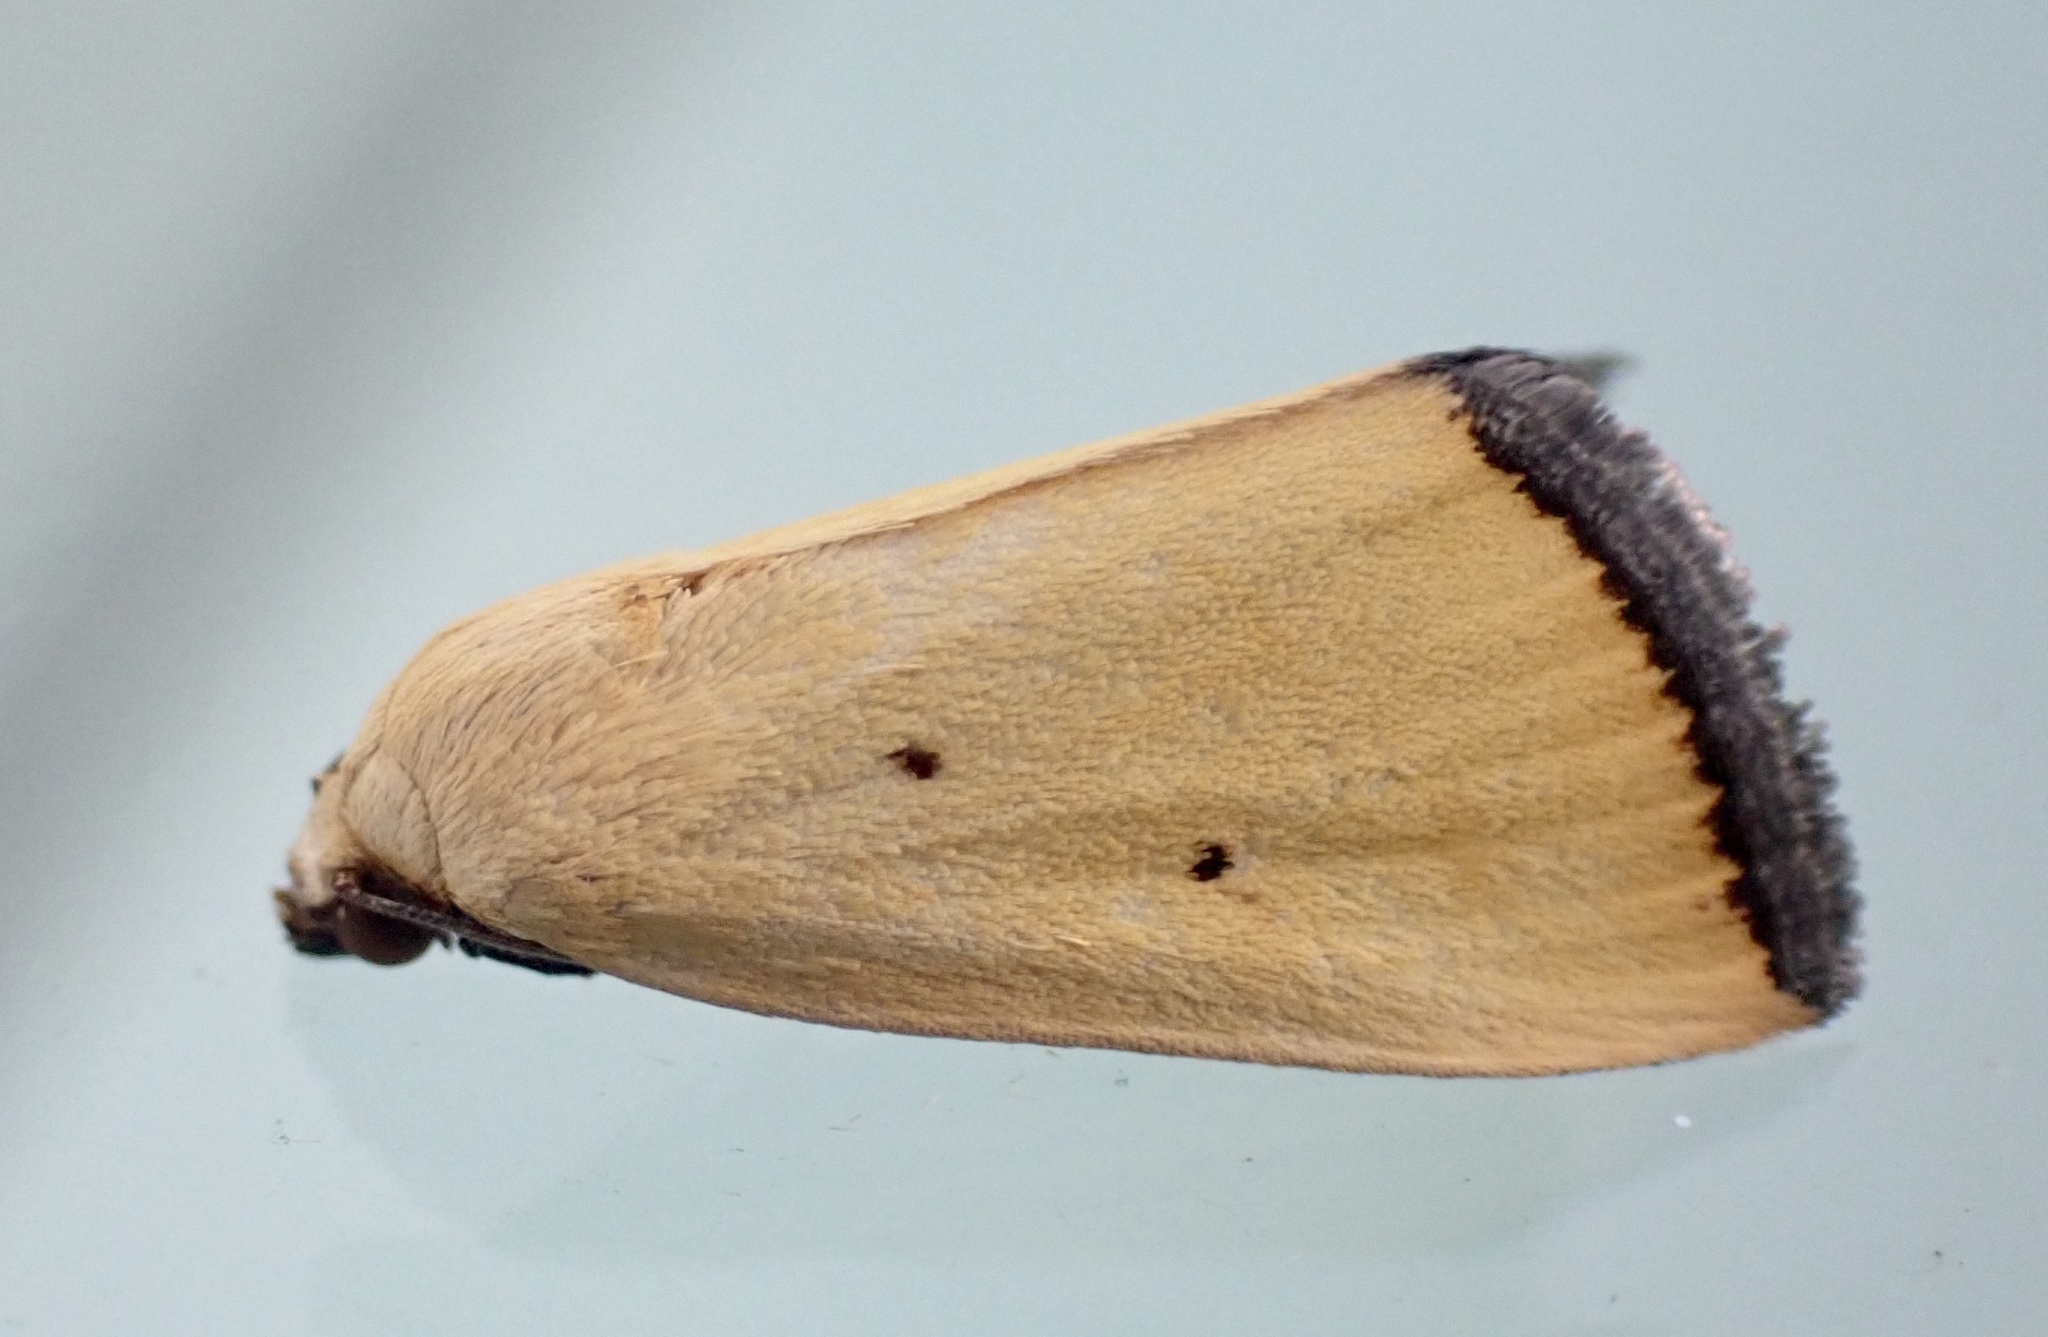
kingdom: Animalia
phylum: Arthropoda
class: Insecta
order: Lepidoptera
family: Noctuidae
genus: Marimatha
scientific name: Marimatha nigrofimbria
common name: Black-bordered lemon moth
